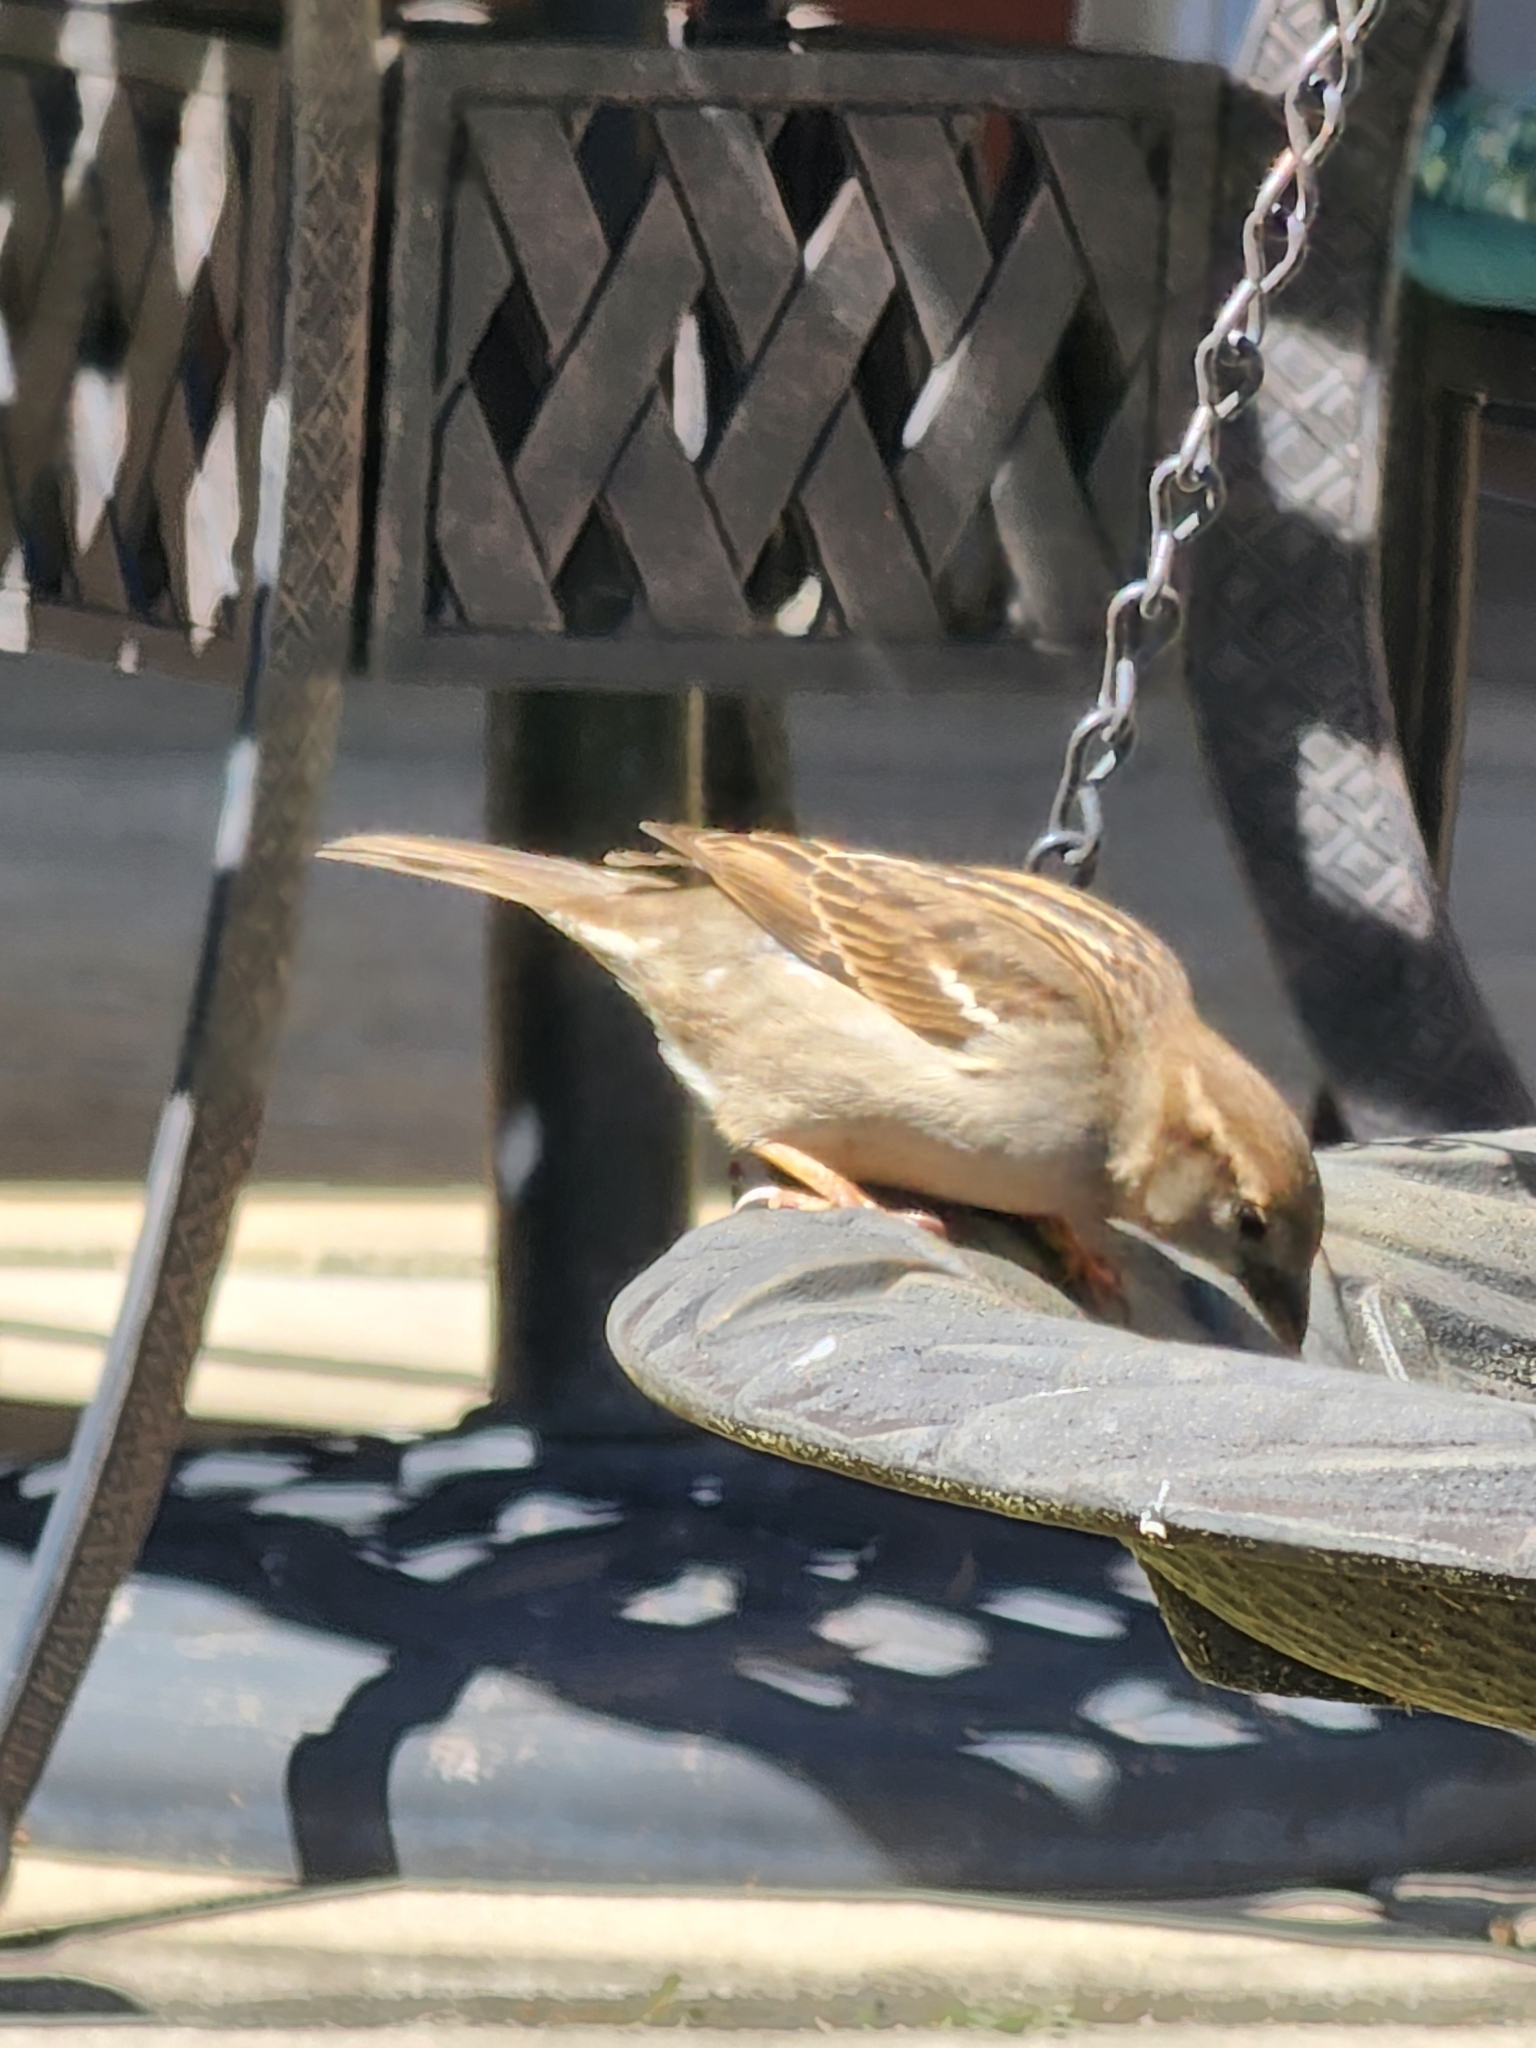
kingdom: Animalia
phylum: Chordata
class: Aves
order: Passeriformes
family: Passeridae
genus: Passer
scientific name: Passer domesticus
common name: House sparrow
